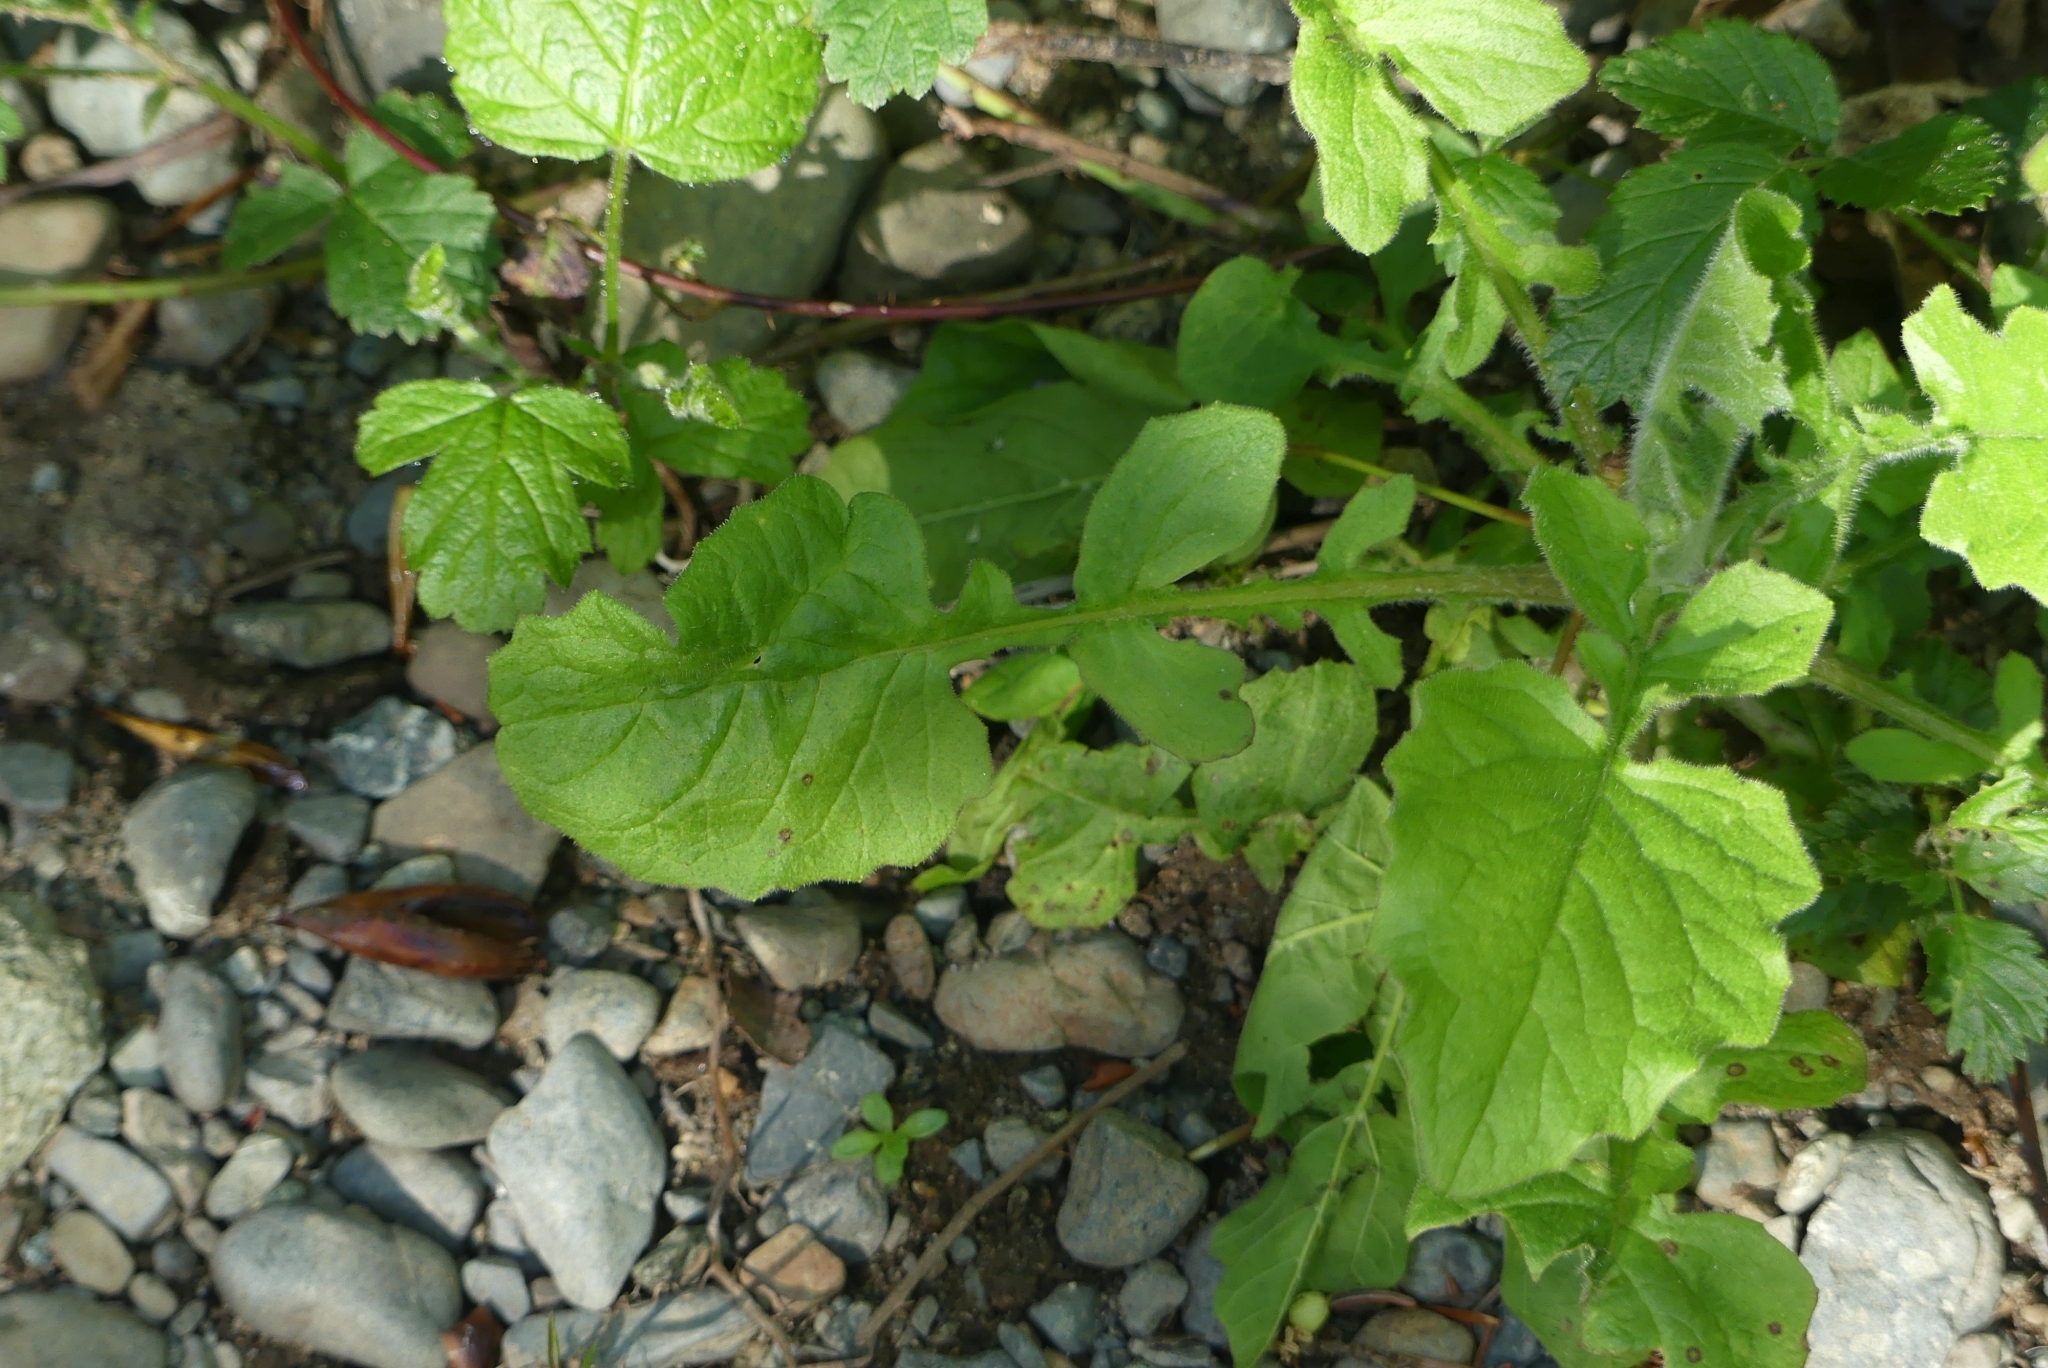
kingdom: Plantae
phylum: Tracheophyta
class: Magnoliopsida
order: Asterales
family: Asteraceae
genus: Lapsana
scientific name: Lapsana communis
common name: Nipplewort
